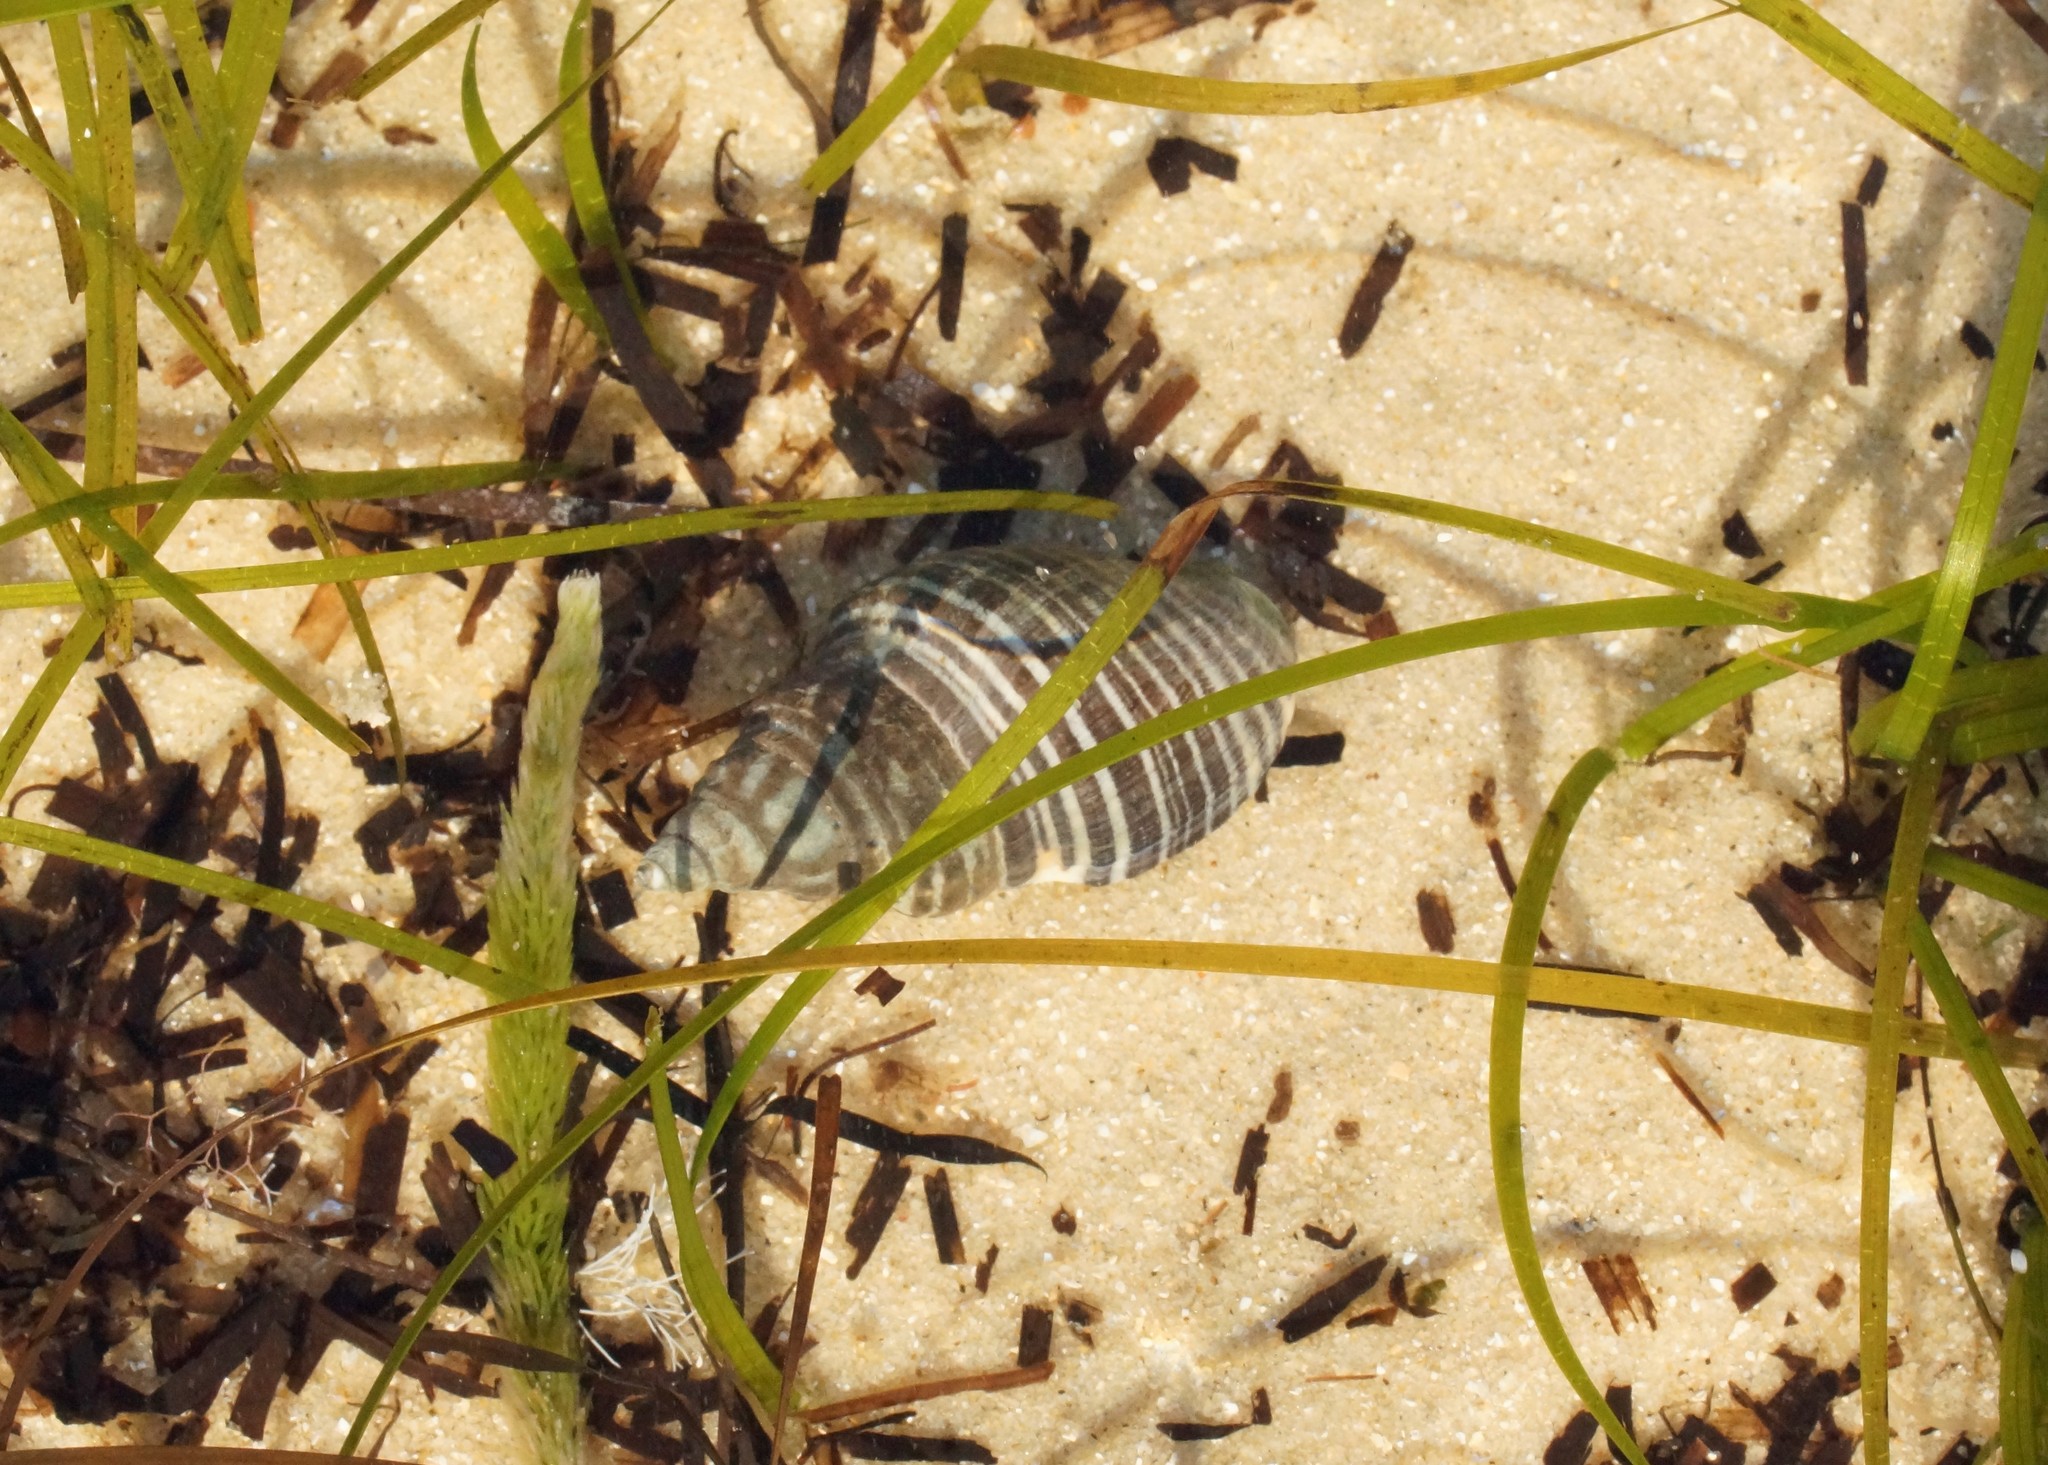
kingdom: Animalia
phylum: Mollusca
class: Gastropoda
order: Neogastropoda
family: Cominellidae
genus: Cominella
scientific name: Cominella lineolata
